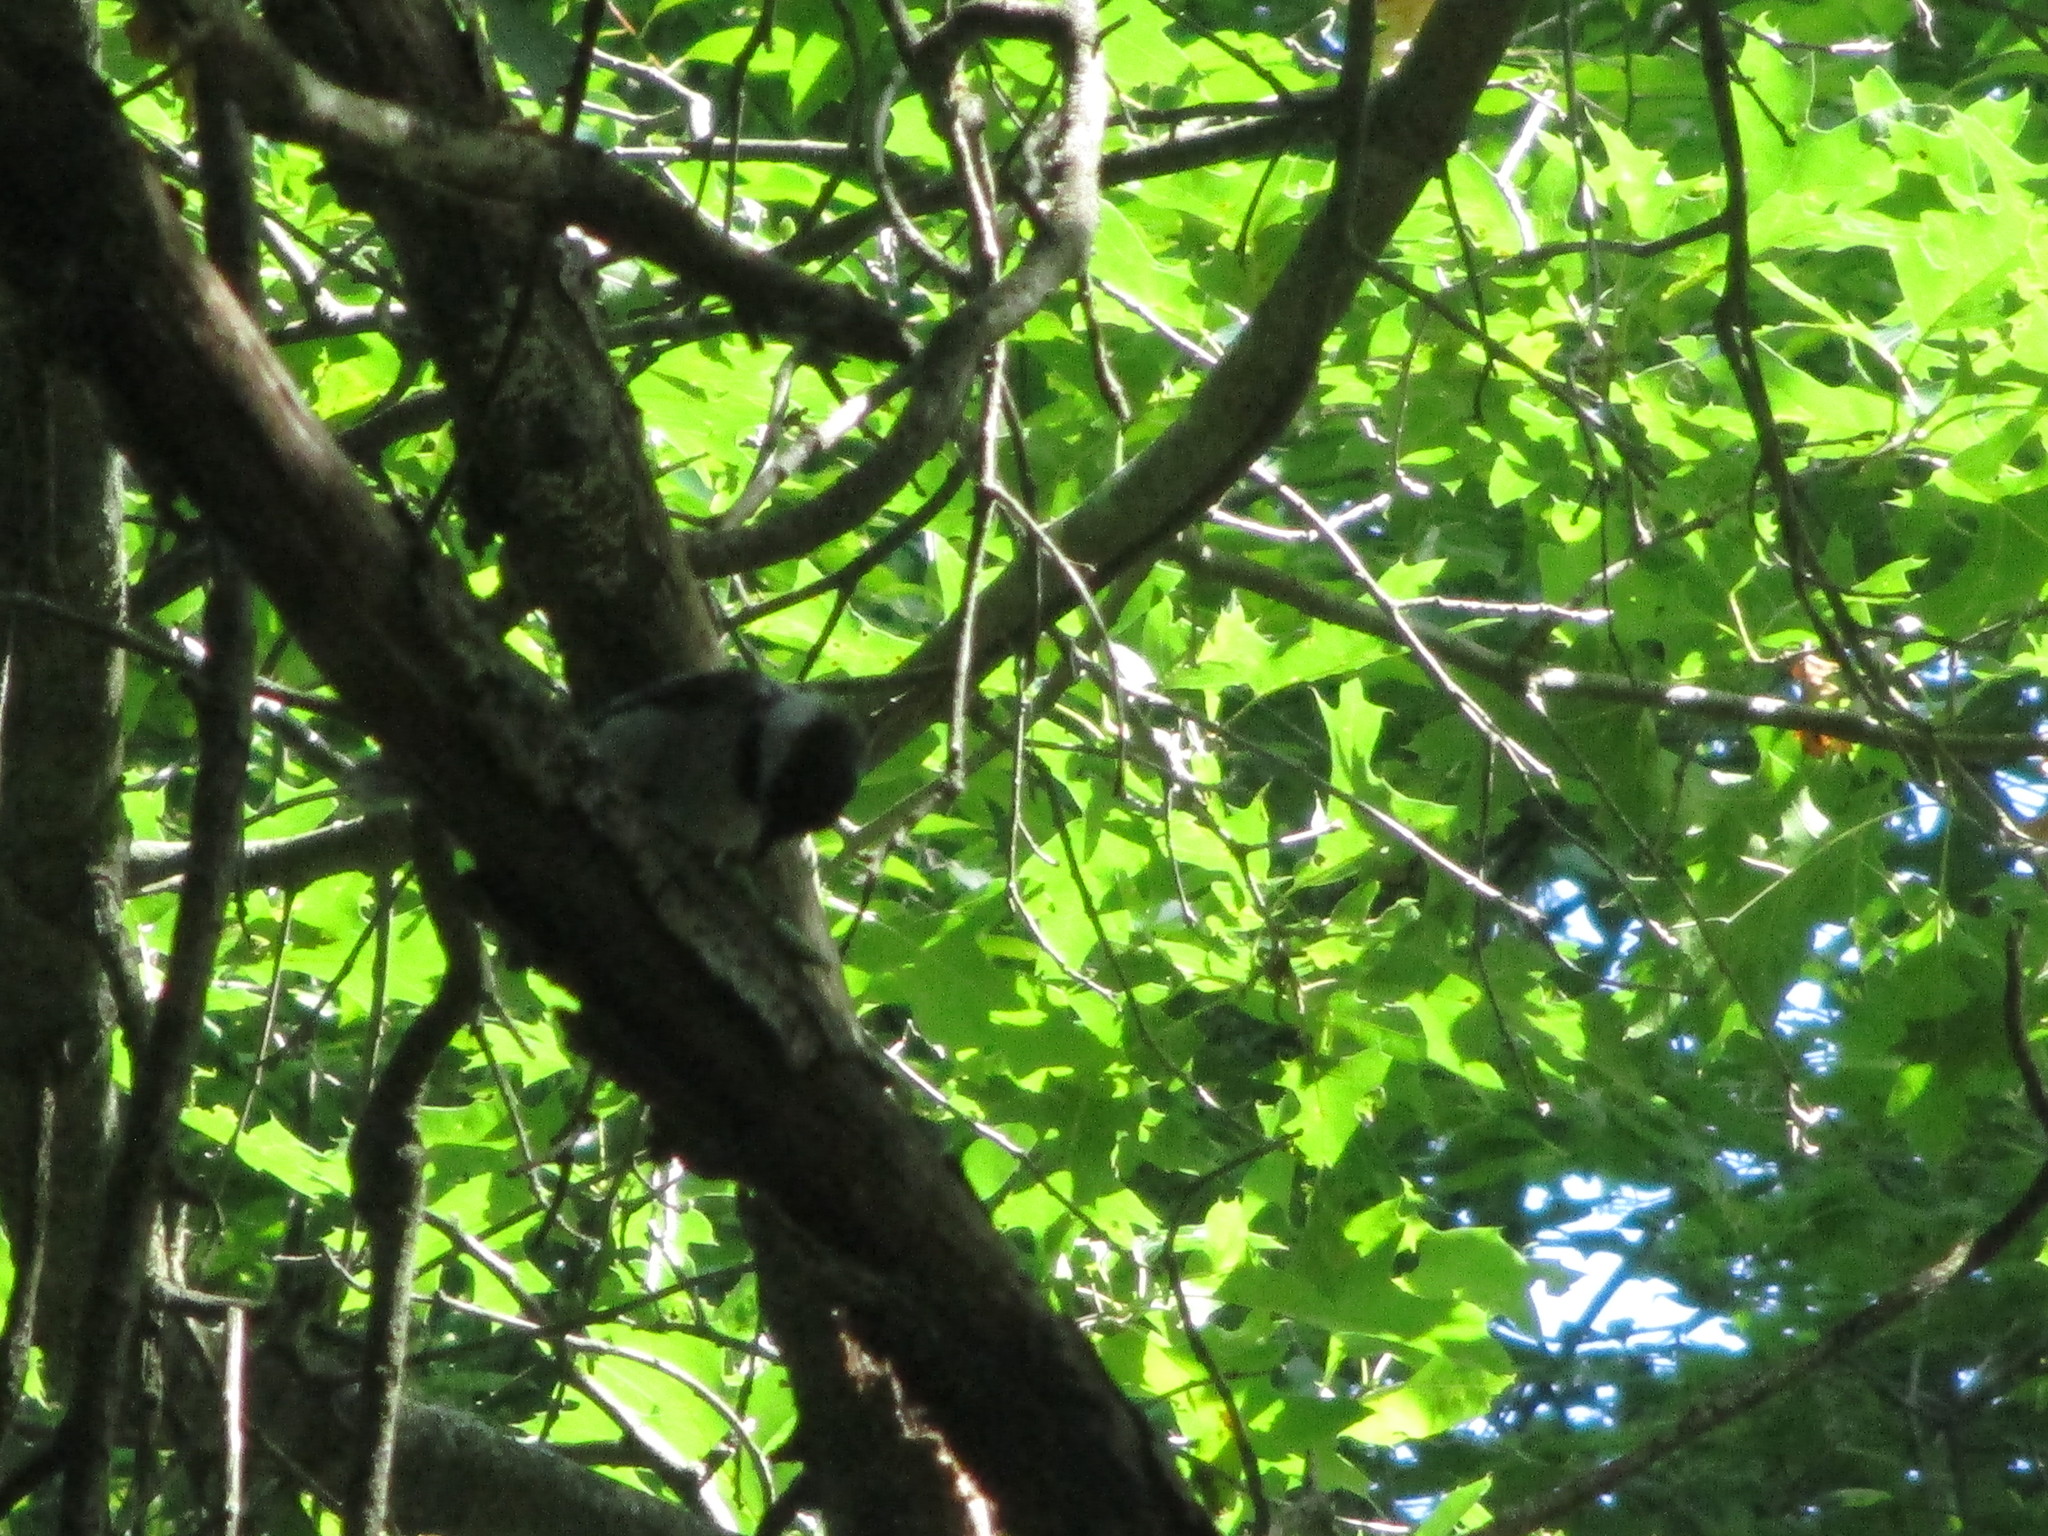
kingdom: Animalia
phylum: Chordata
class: Aves
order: Passeriformes
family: Paridae
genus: Poecile
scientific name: Poecile atricapillus
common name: Black-capped chickadee
